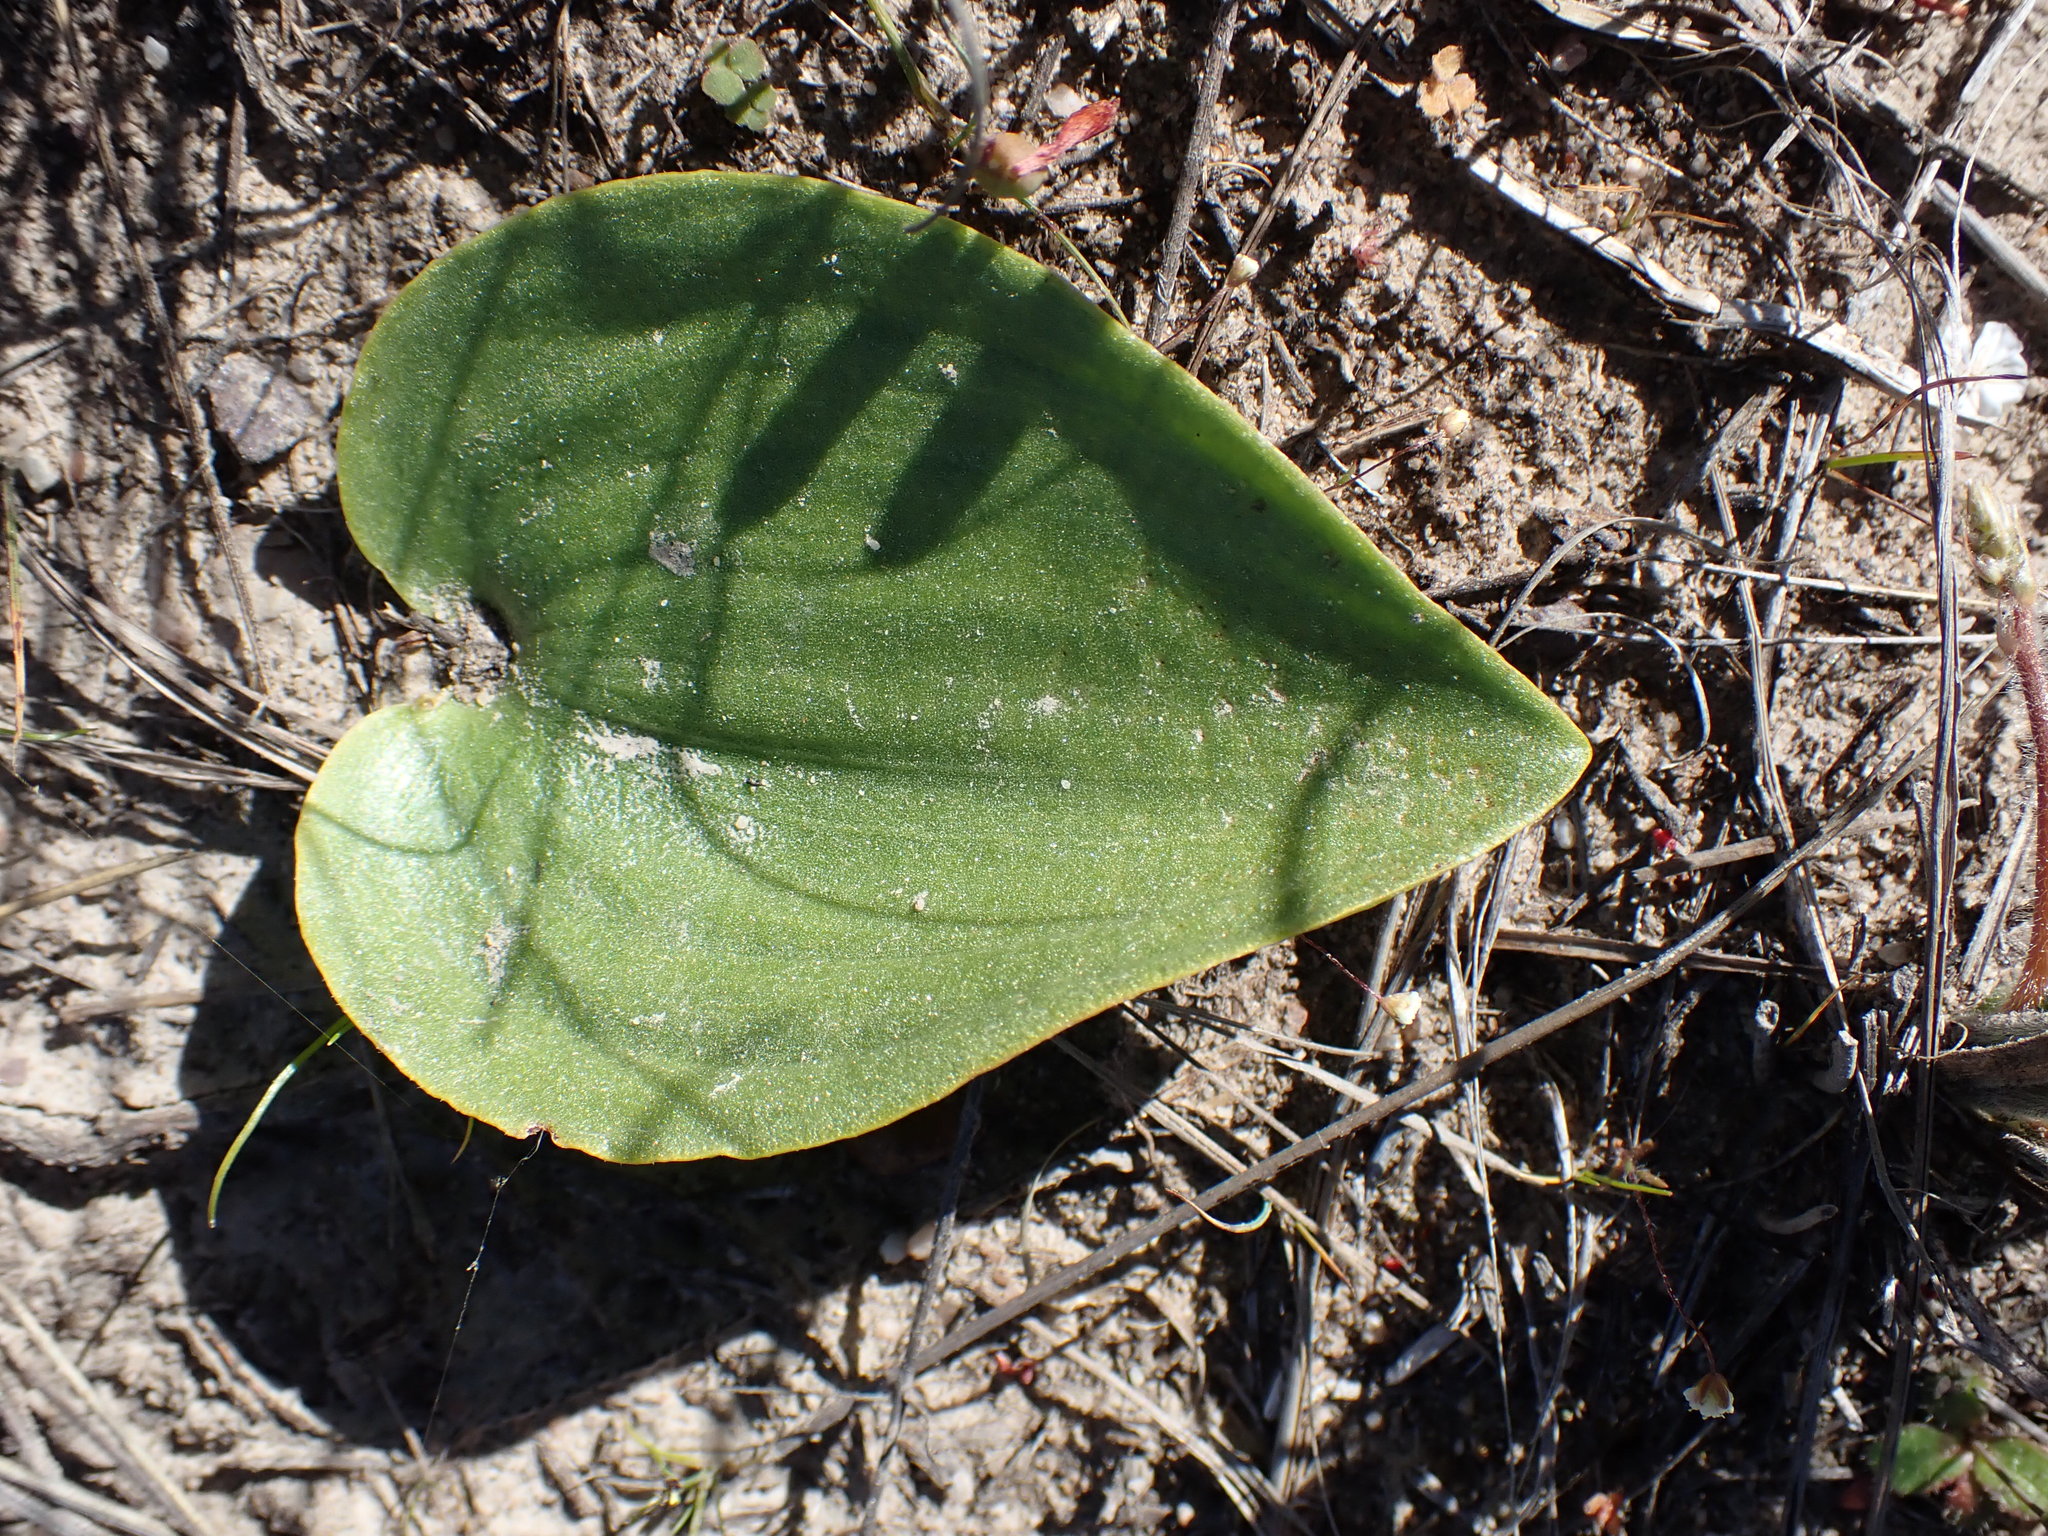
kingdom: Plantae
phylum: Tracheophyta
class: Liliopsida
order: Asparagales
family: Asparagaceae
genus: Eriospermum
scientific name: Eriospermum capense
